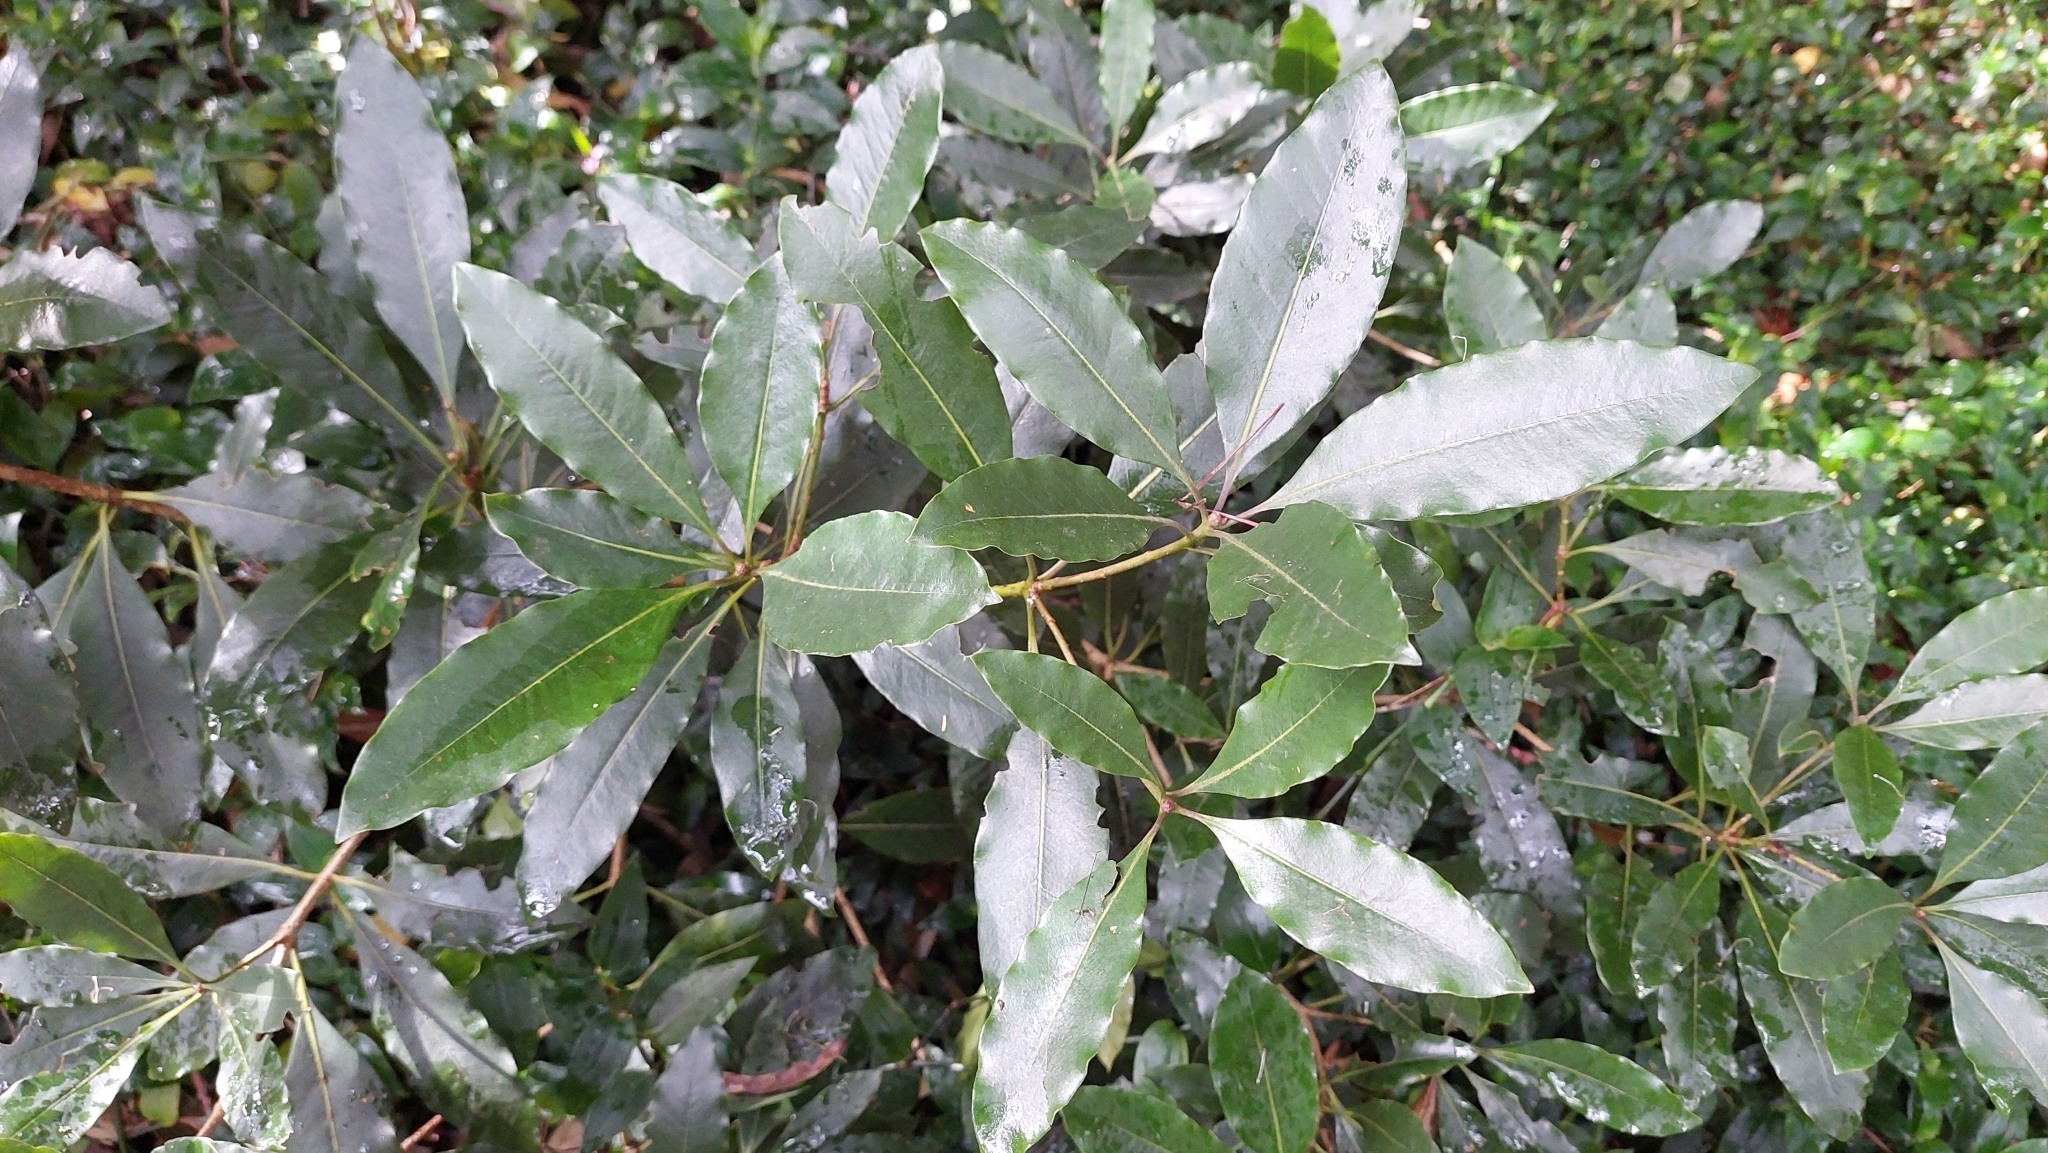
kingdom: Plantae
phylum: Tracheophyta
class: Magnoliopsida
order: Apiales
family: Pittosporaceae
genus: Pittosporum
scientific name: Pittosporum undulatum
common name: Australian cheesewood
